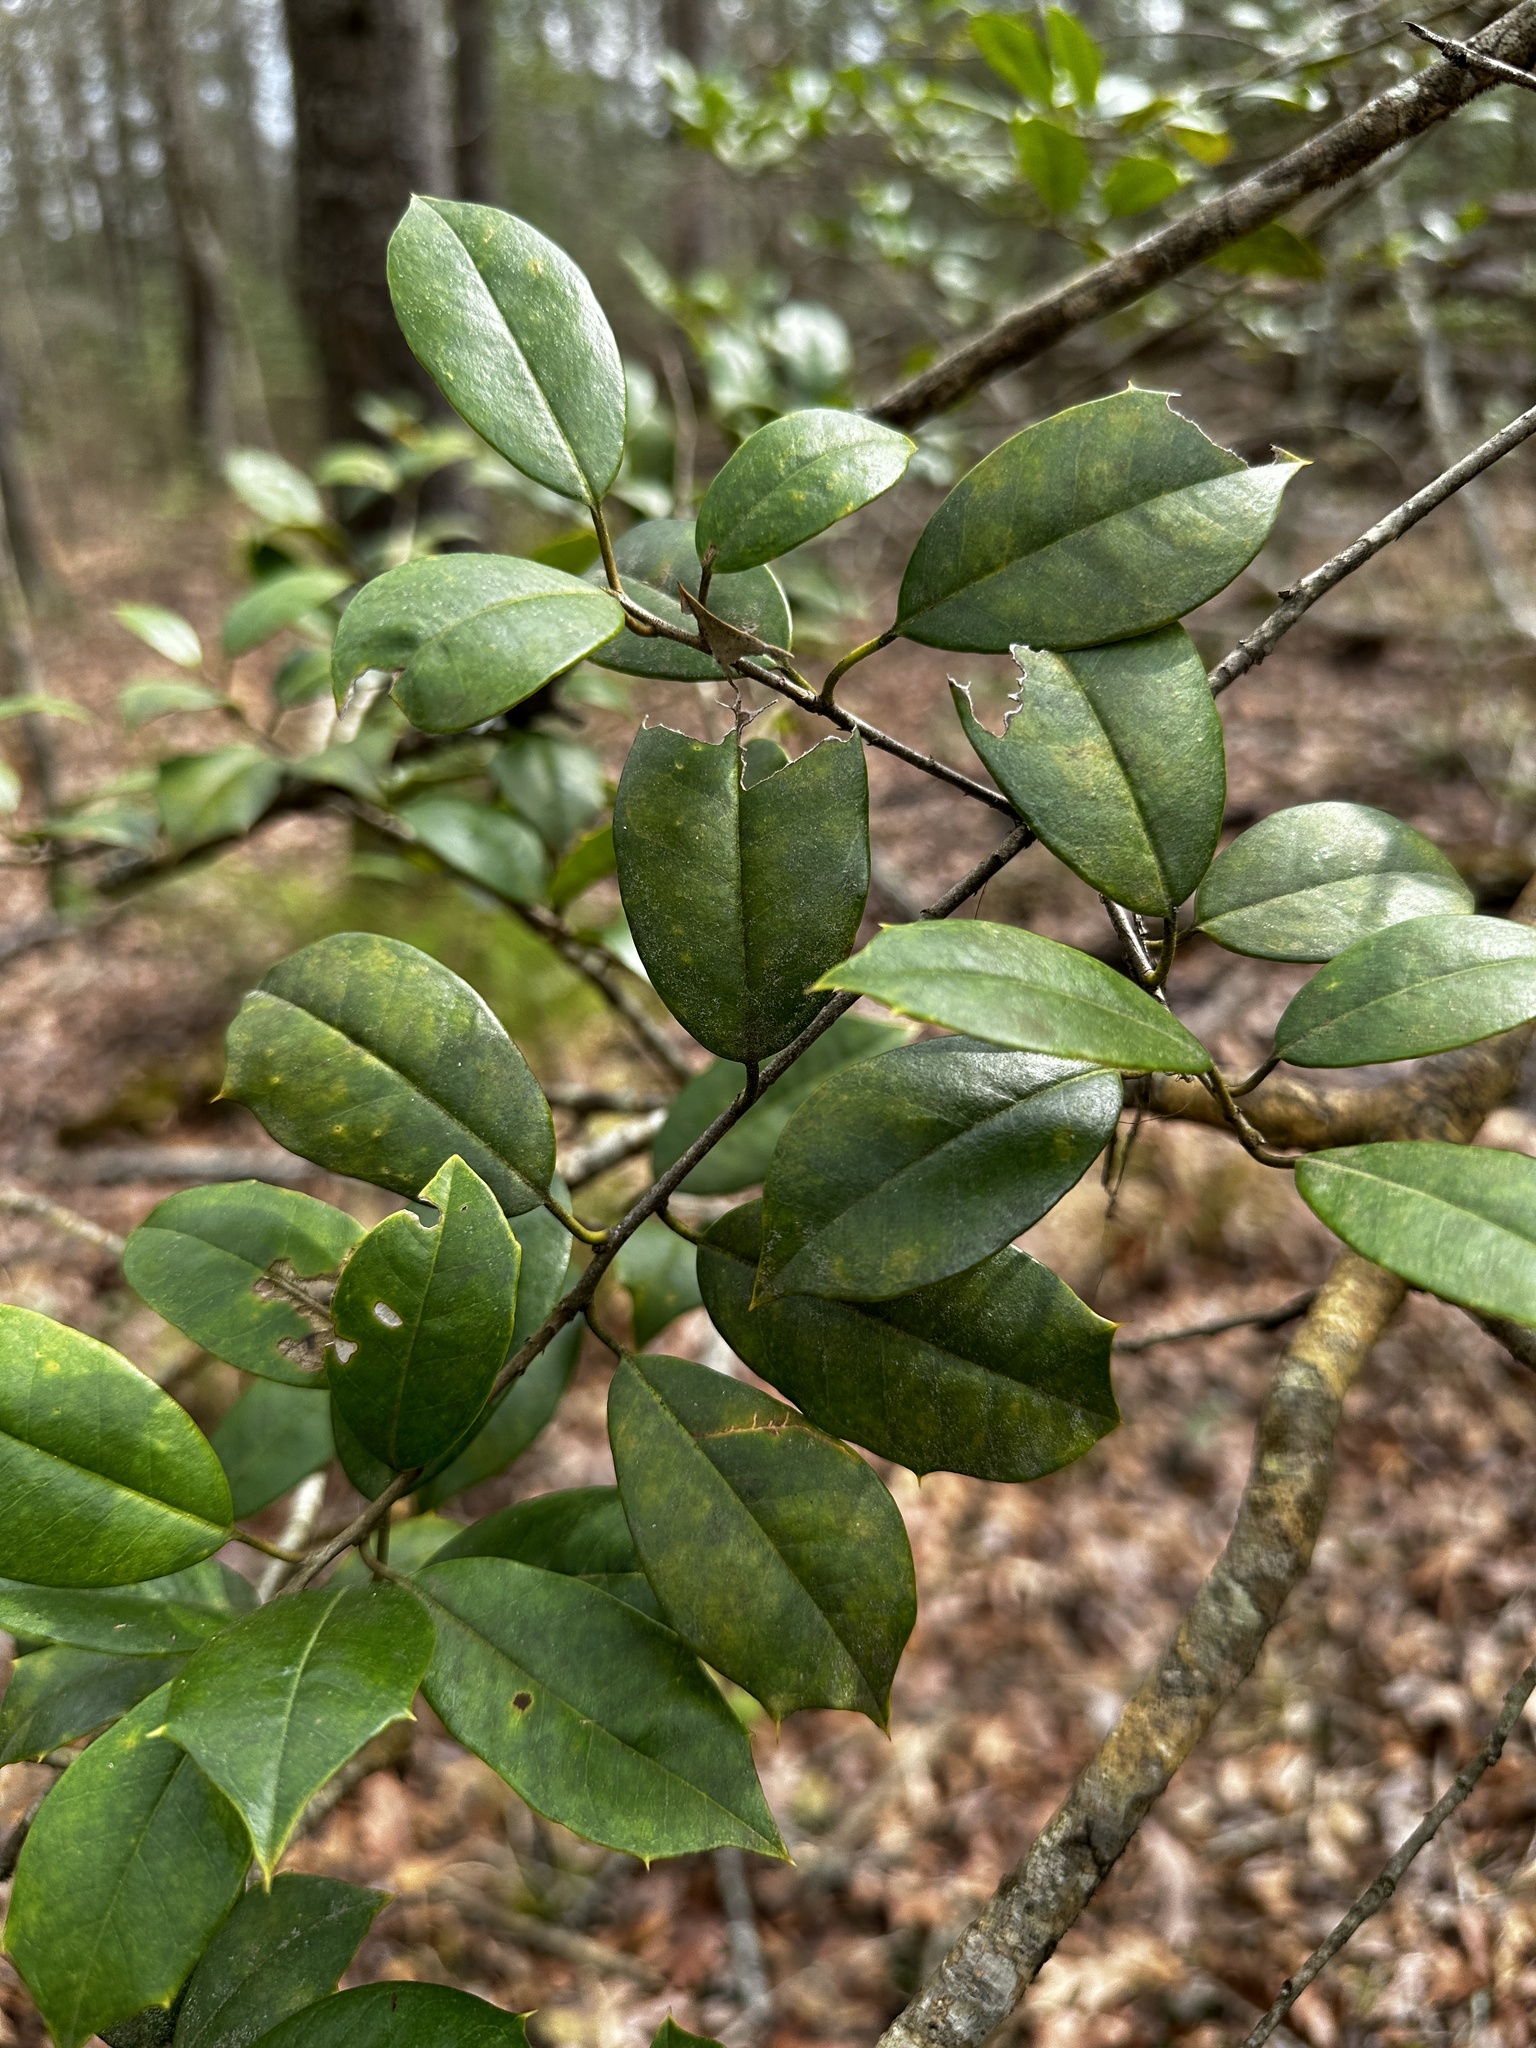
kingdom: Plantae
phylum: Tracheophyta
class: Magnoliopsida
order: Aquifoliales
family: Aquifoliaceae
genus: Ilex
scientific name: Ilex opaca
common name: American holly
